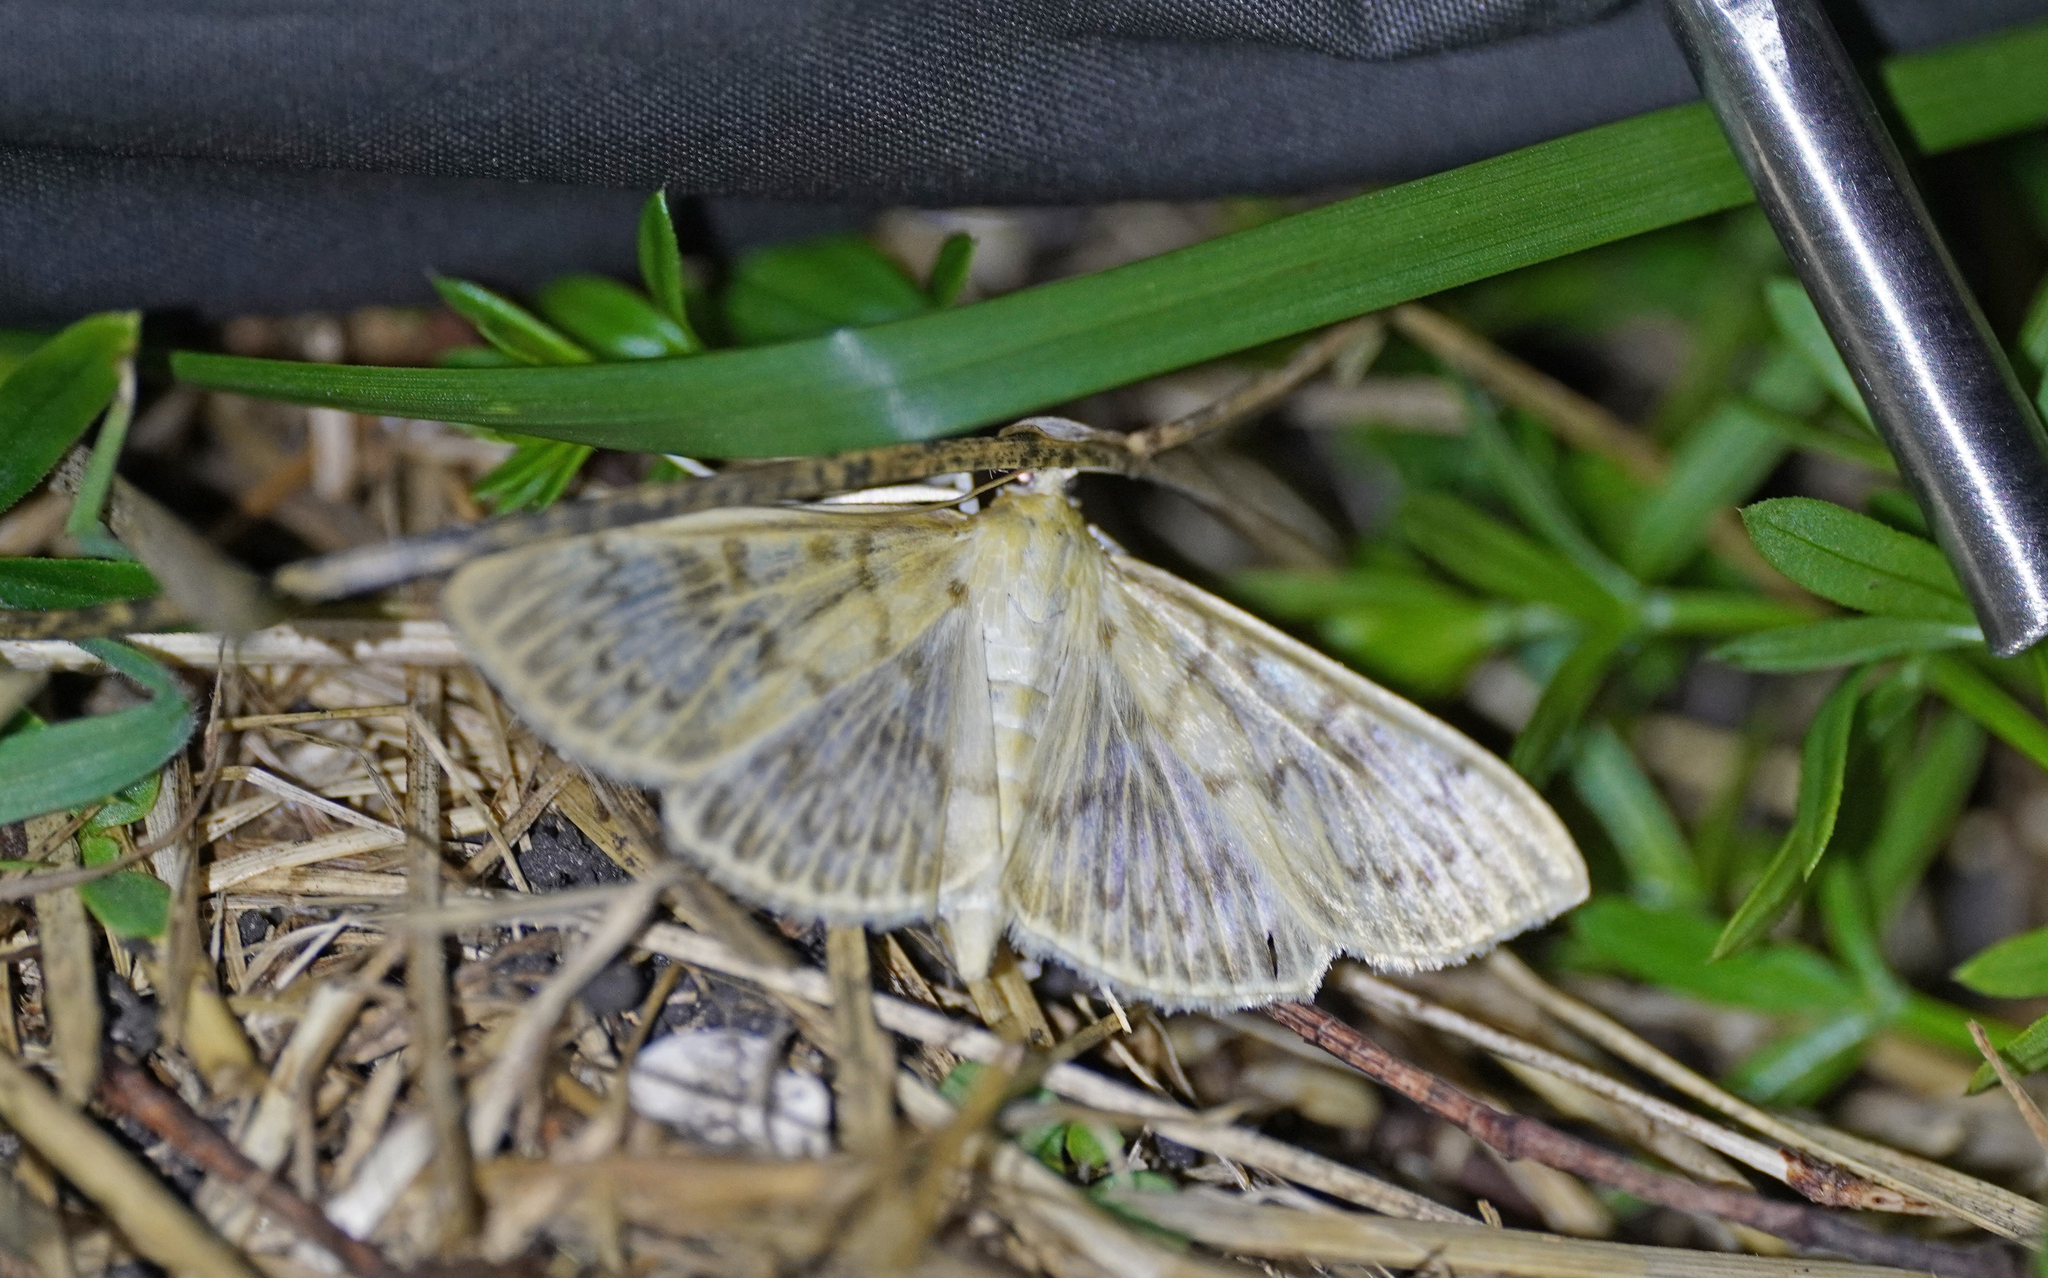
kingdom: Animalia
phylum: Arthropoda
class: Insecta
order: Lepidoptera
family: Crambidae
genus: Patania
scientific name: Patania ruralis
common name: Mother of pearl
